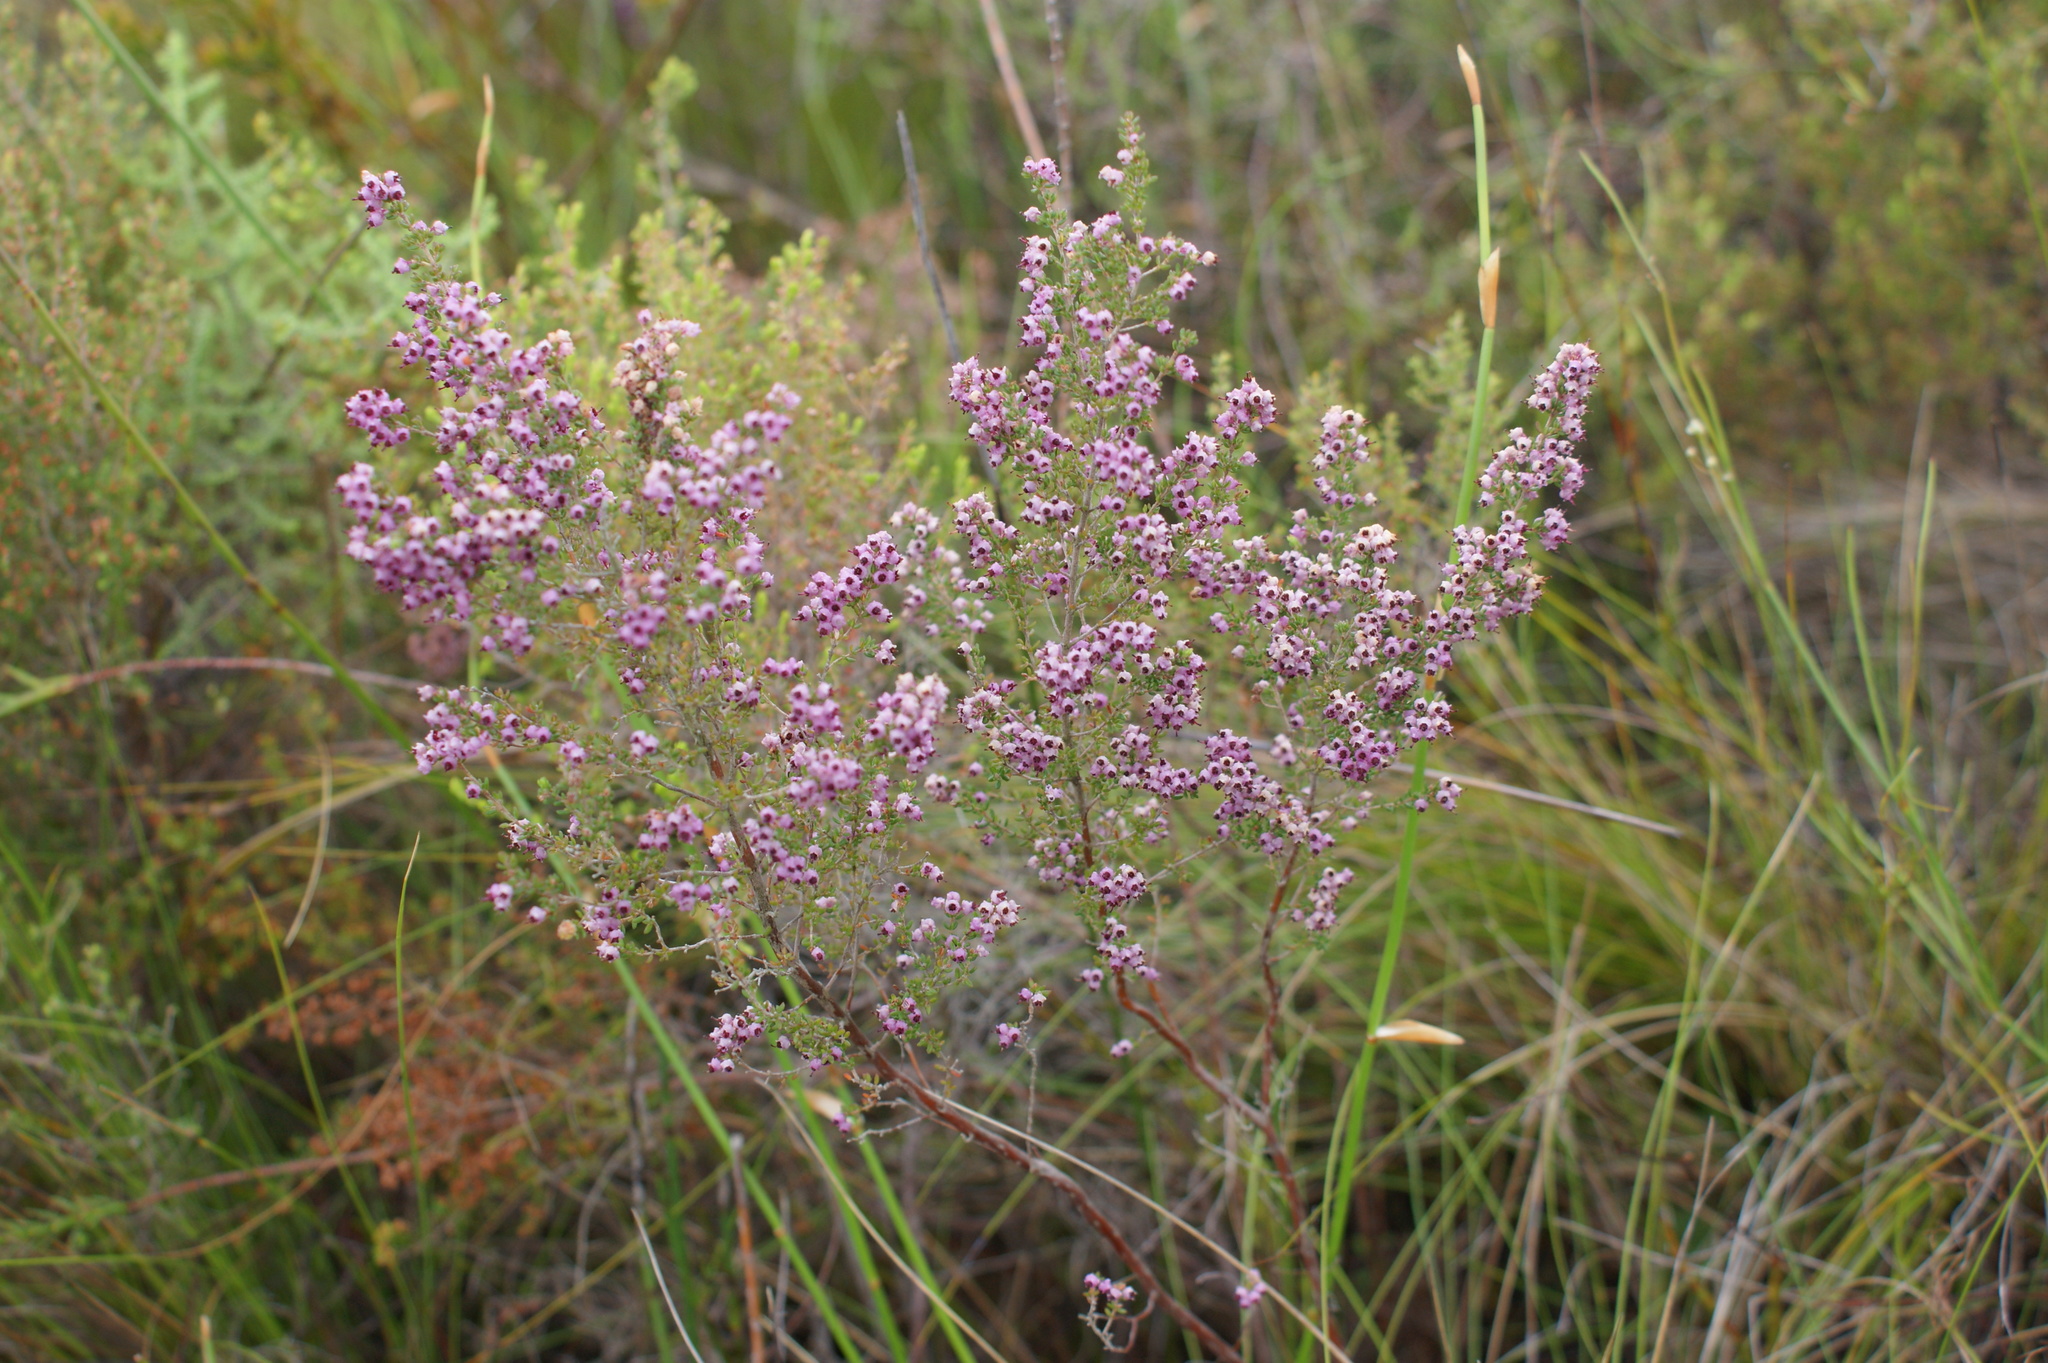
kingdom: Plantae
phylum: Tracheophyta
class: Magnoliopsida
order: Ericales
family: Ericaceae
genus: Erica
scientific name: Erica cordata
